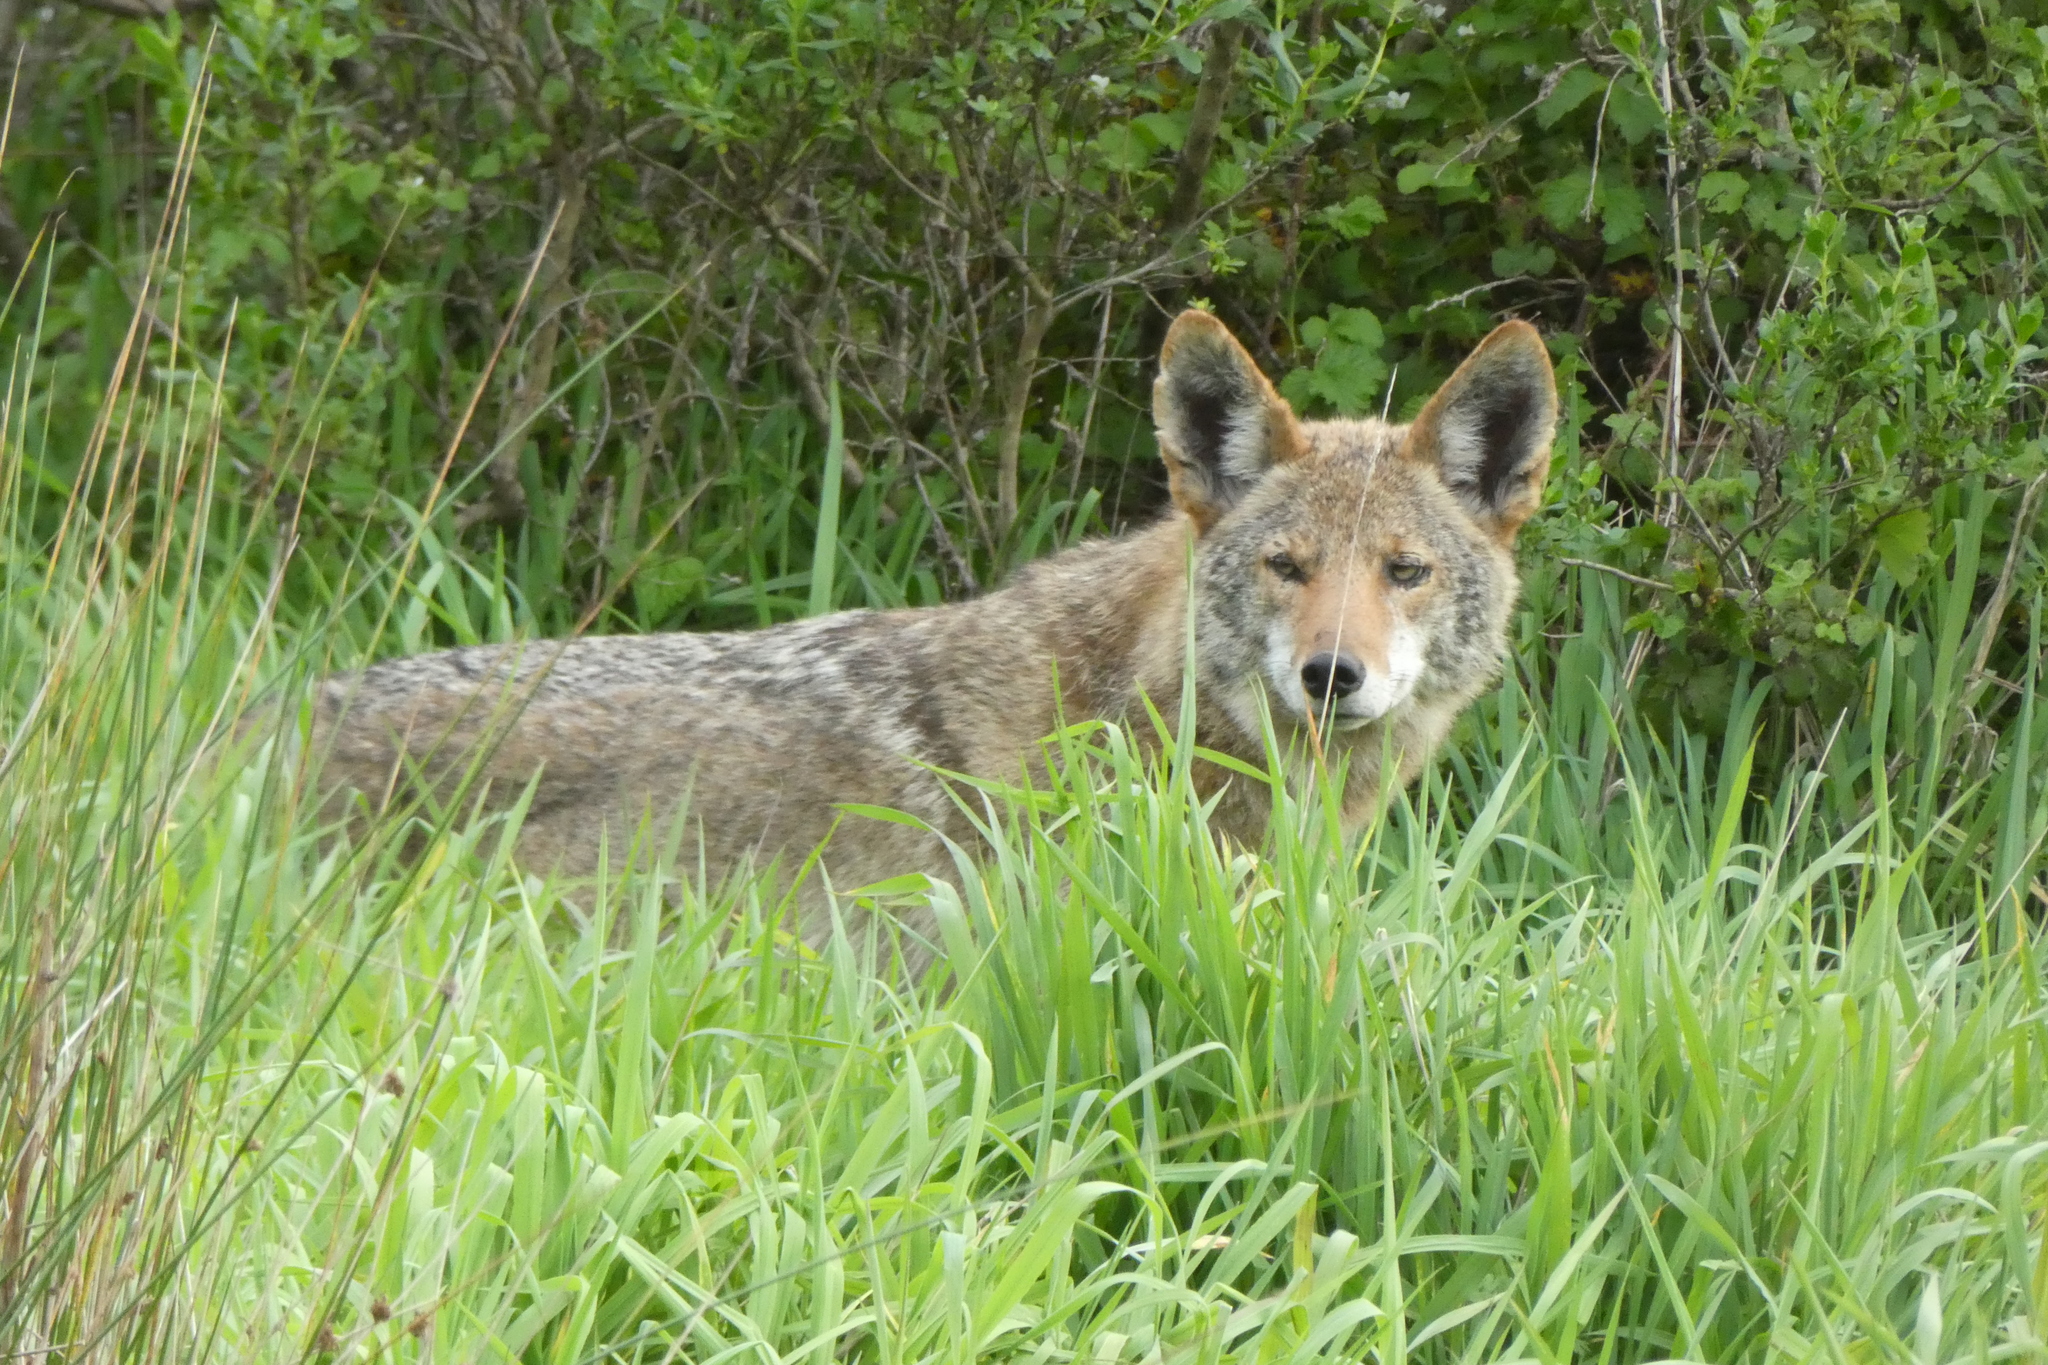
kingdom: Animalia
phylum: Chordata
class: Mammalia
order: Carnivora
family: Canidae
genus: Canis
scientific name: Canis latrans
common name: Coyote
